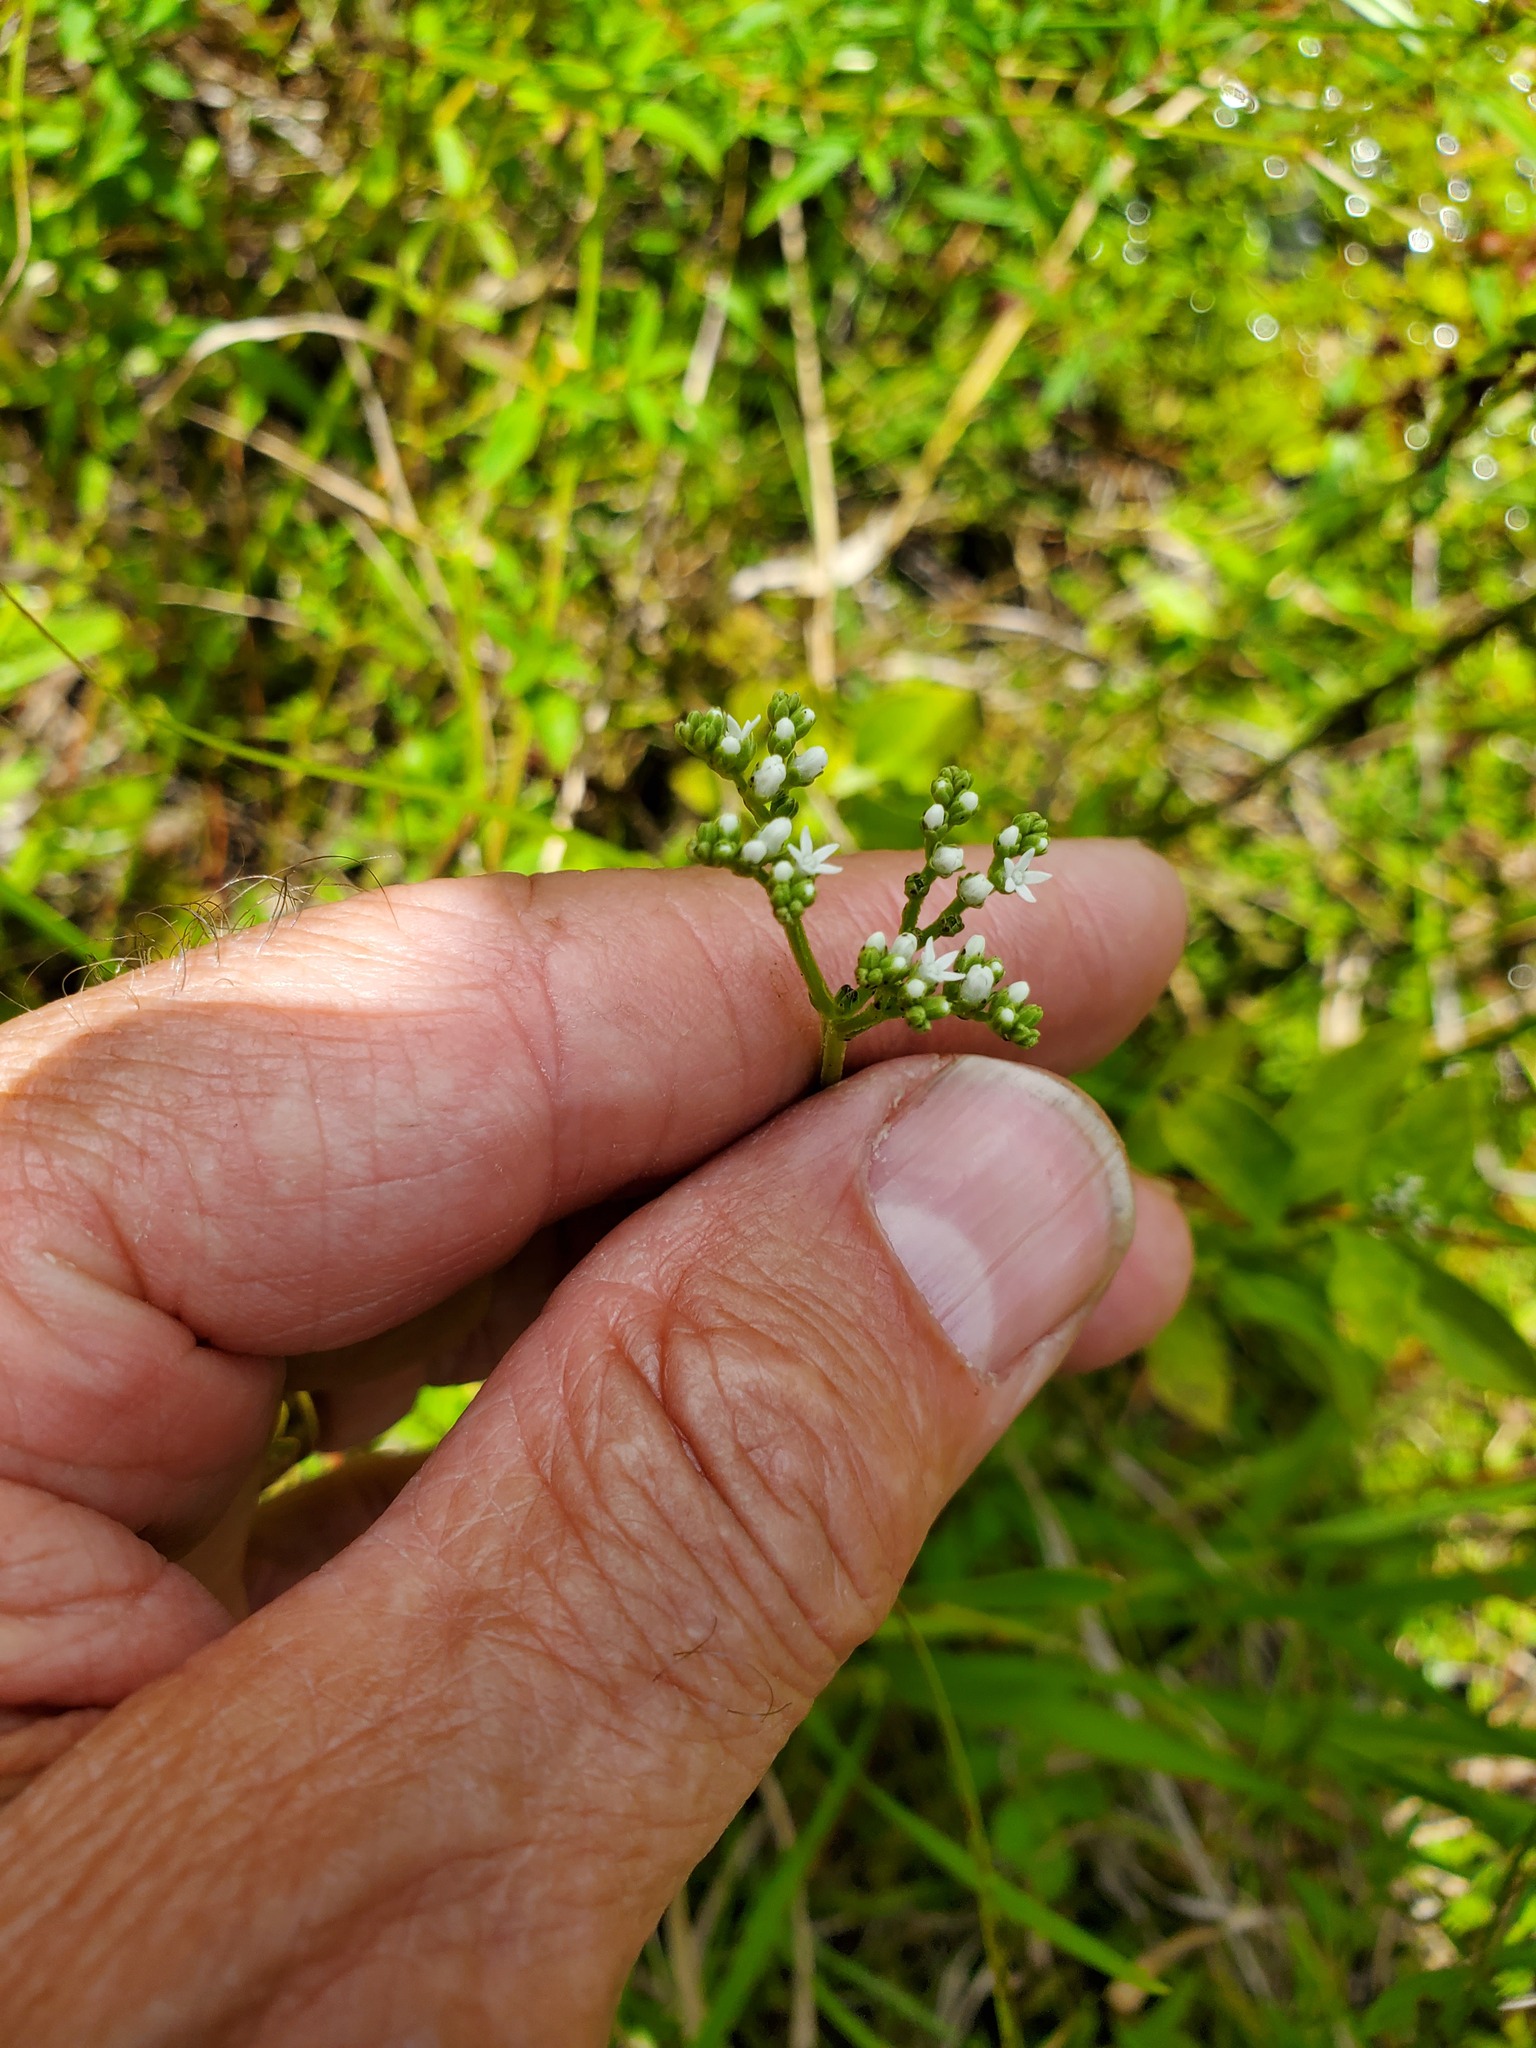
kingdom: Plantae
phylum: Tracheophyta
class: Magnoliopsida
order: Gentianales
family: Loganiaceae
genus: Mitreola
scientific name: Mitreola petiolata
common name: Lax hornpod
